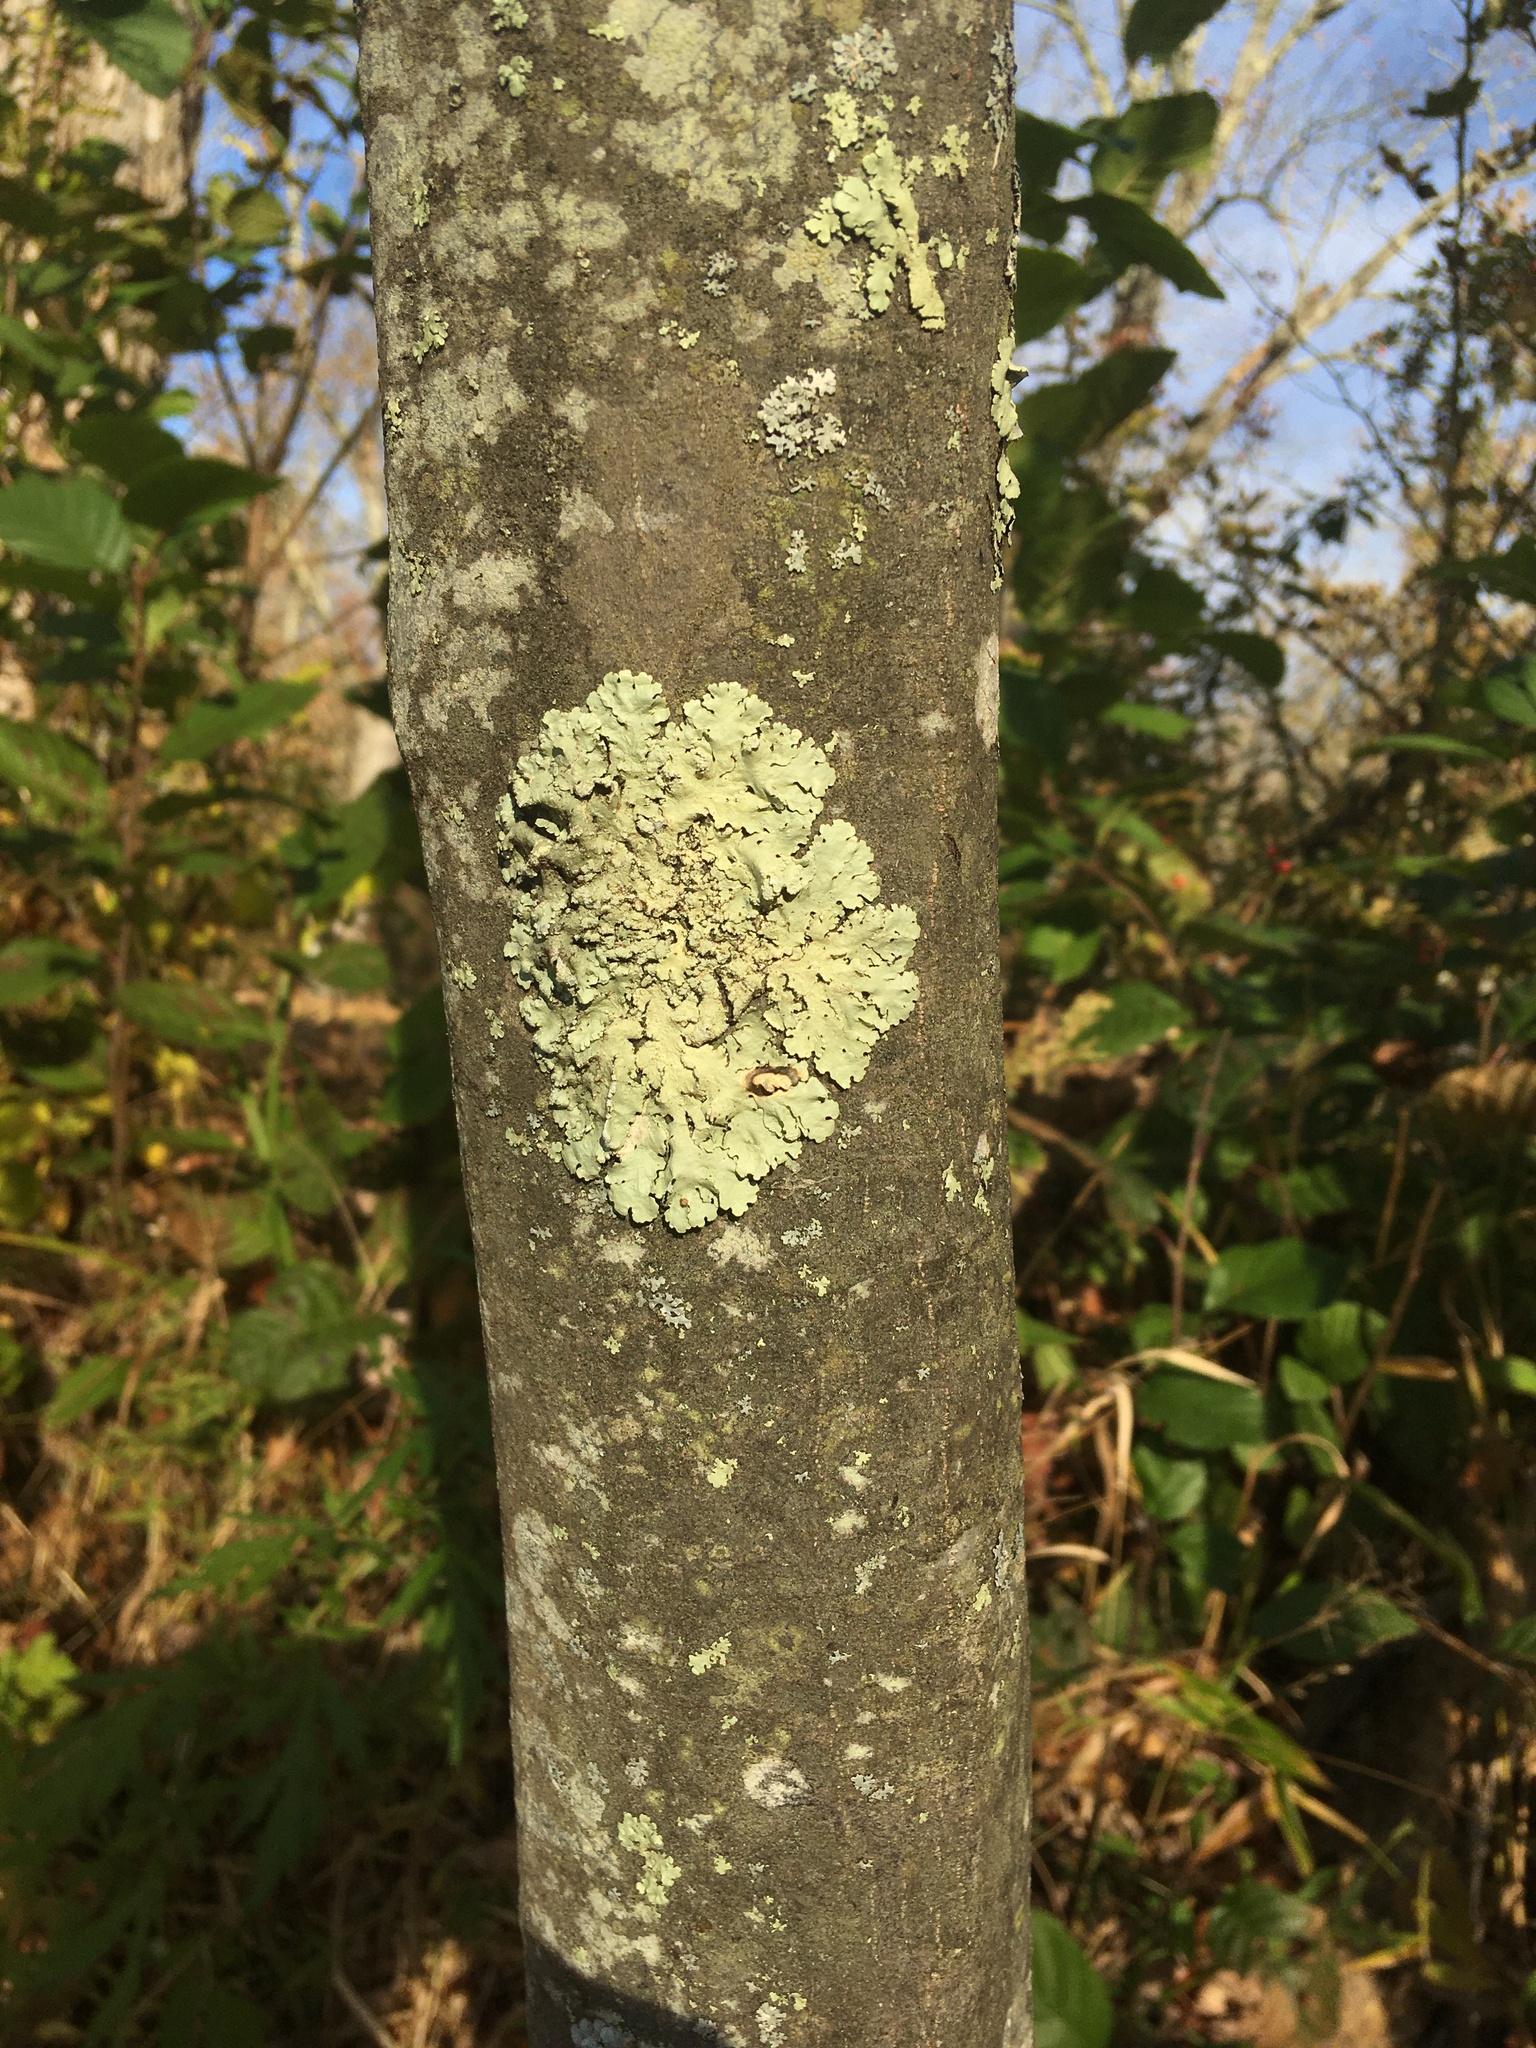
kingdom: Fungi
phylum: Ascomycota
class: Lecanoromycetes
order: Lecanorales
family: Parmeliaceae
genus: Flavoparmelia
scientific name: Flavoparmelia caperata
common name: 40-mile per hour lichen
